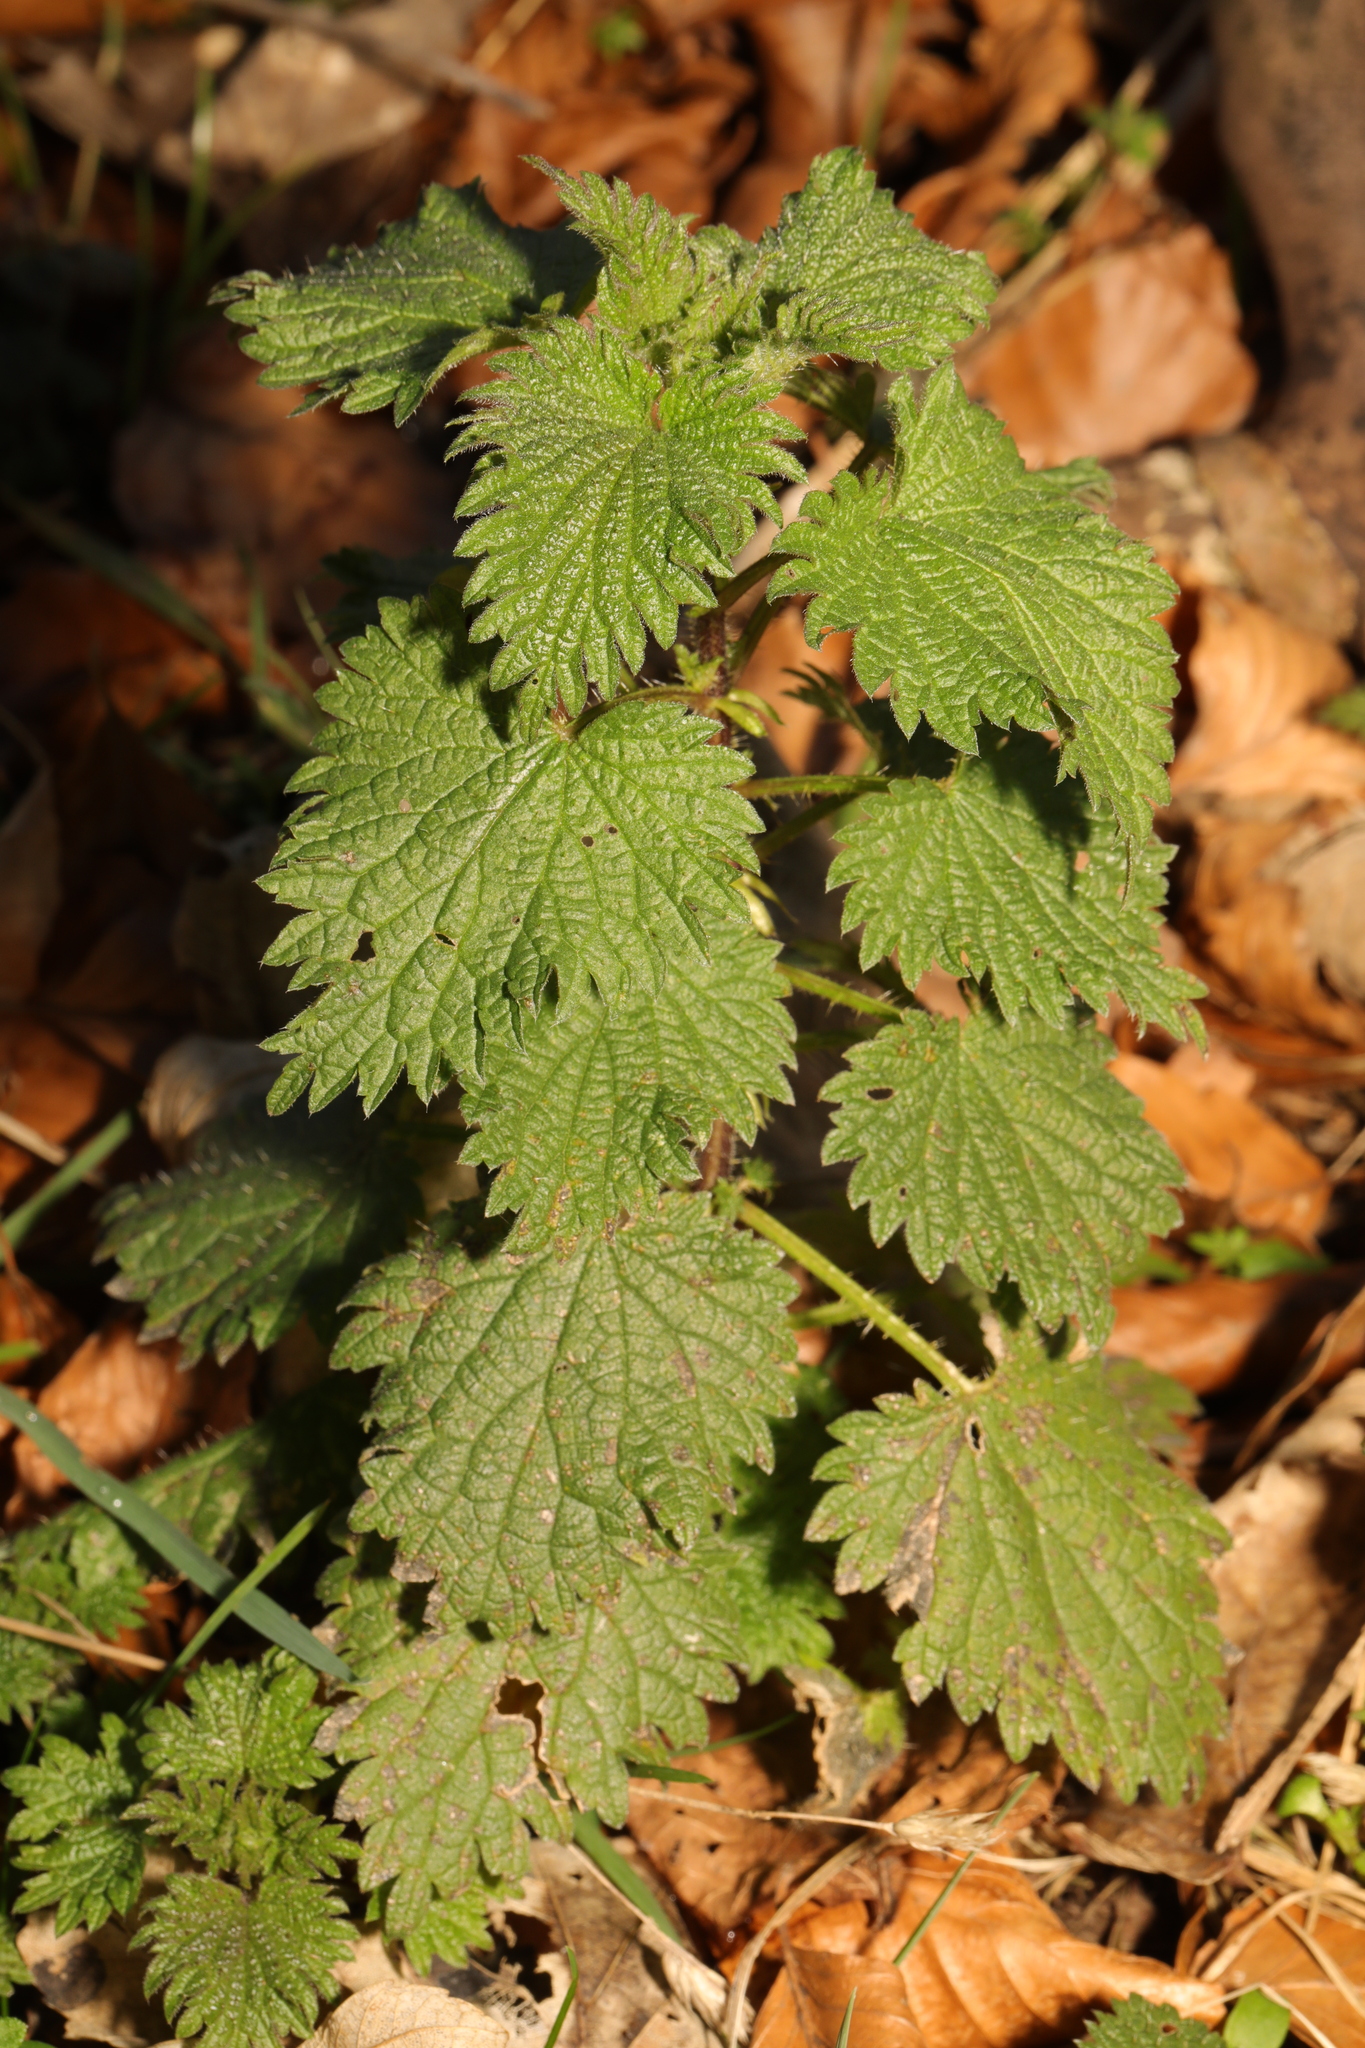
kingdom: Plantae
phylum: Tracheophyta
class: Magnoliopsida
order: Rosales
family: Urticaceae
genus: Urtica
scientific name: Urtica dioica
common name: Common nettle
